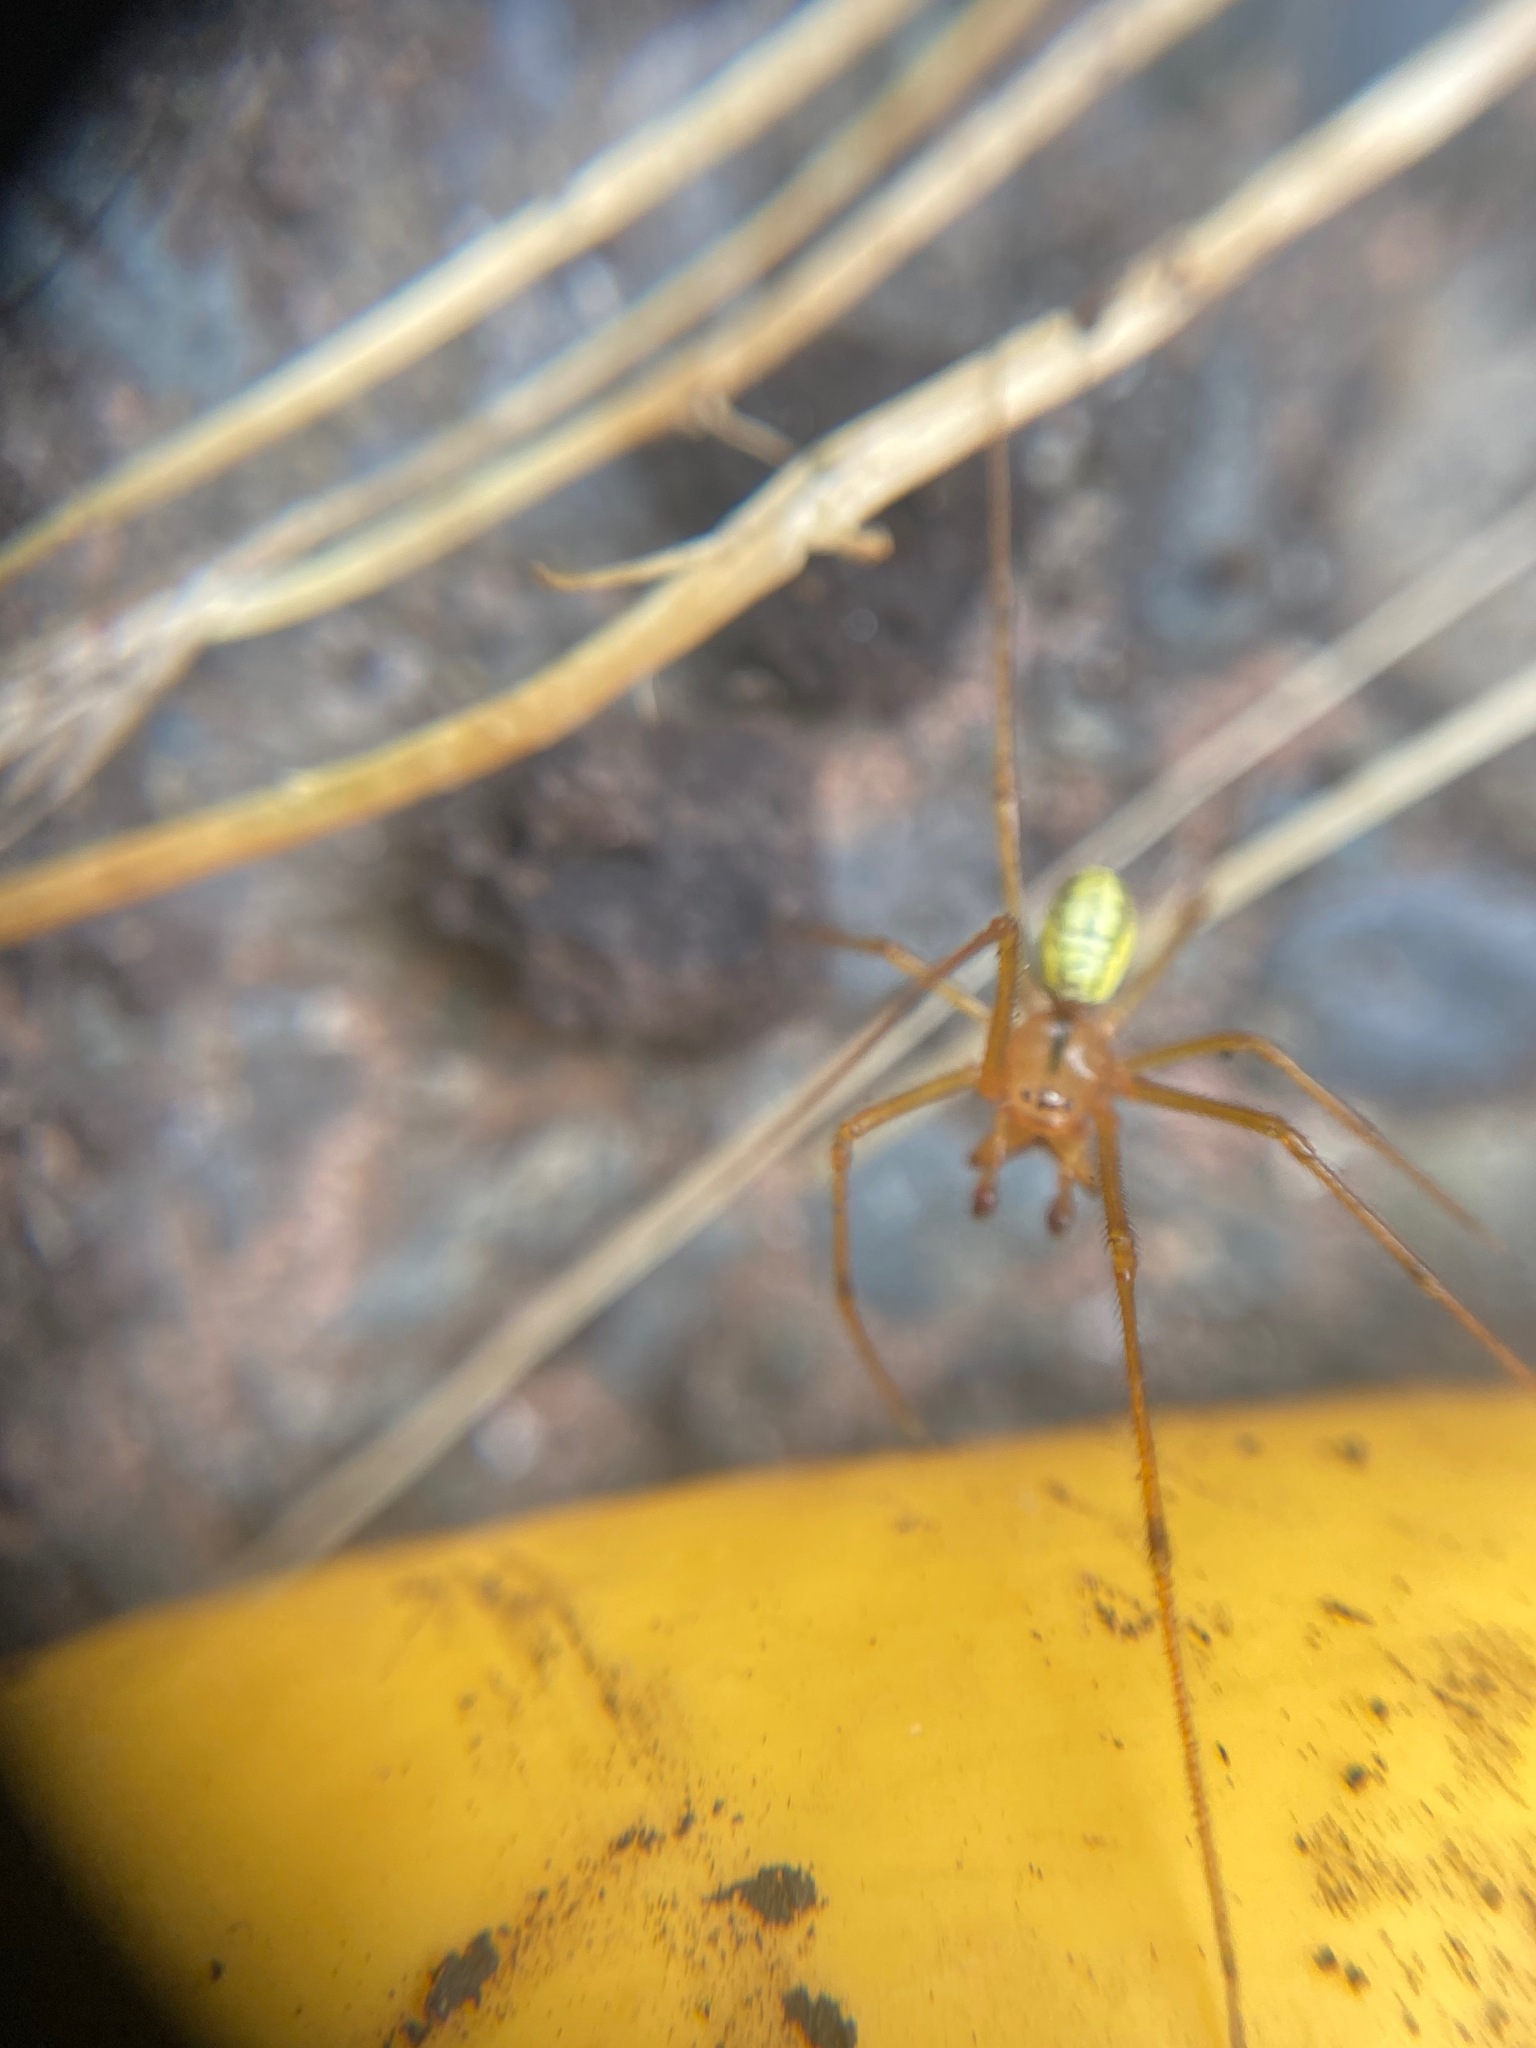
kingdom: Animalia
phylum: Arthropoda
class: Arachnida
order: Araneae
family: Theridiidae
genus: Enoplognatha
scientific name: Enoplognatha ovata
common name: Common candy-striped spider
